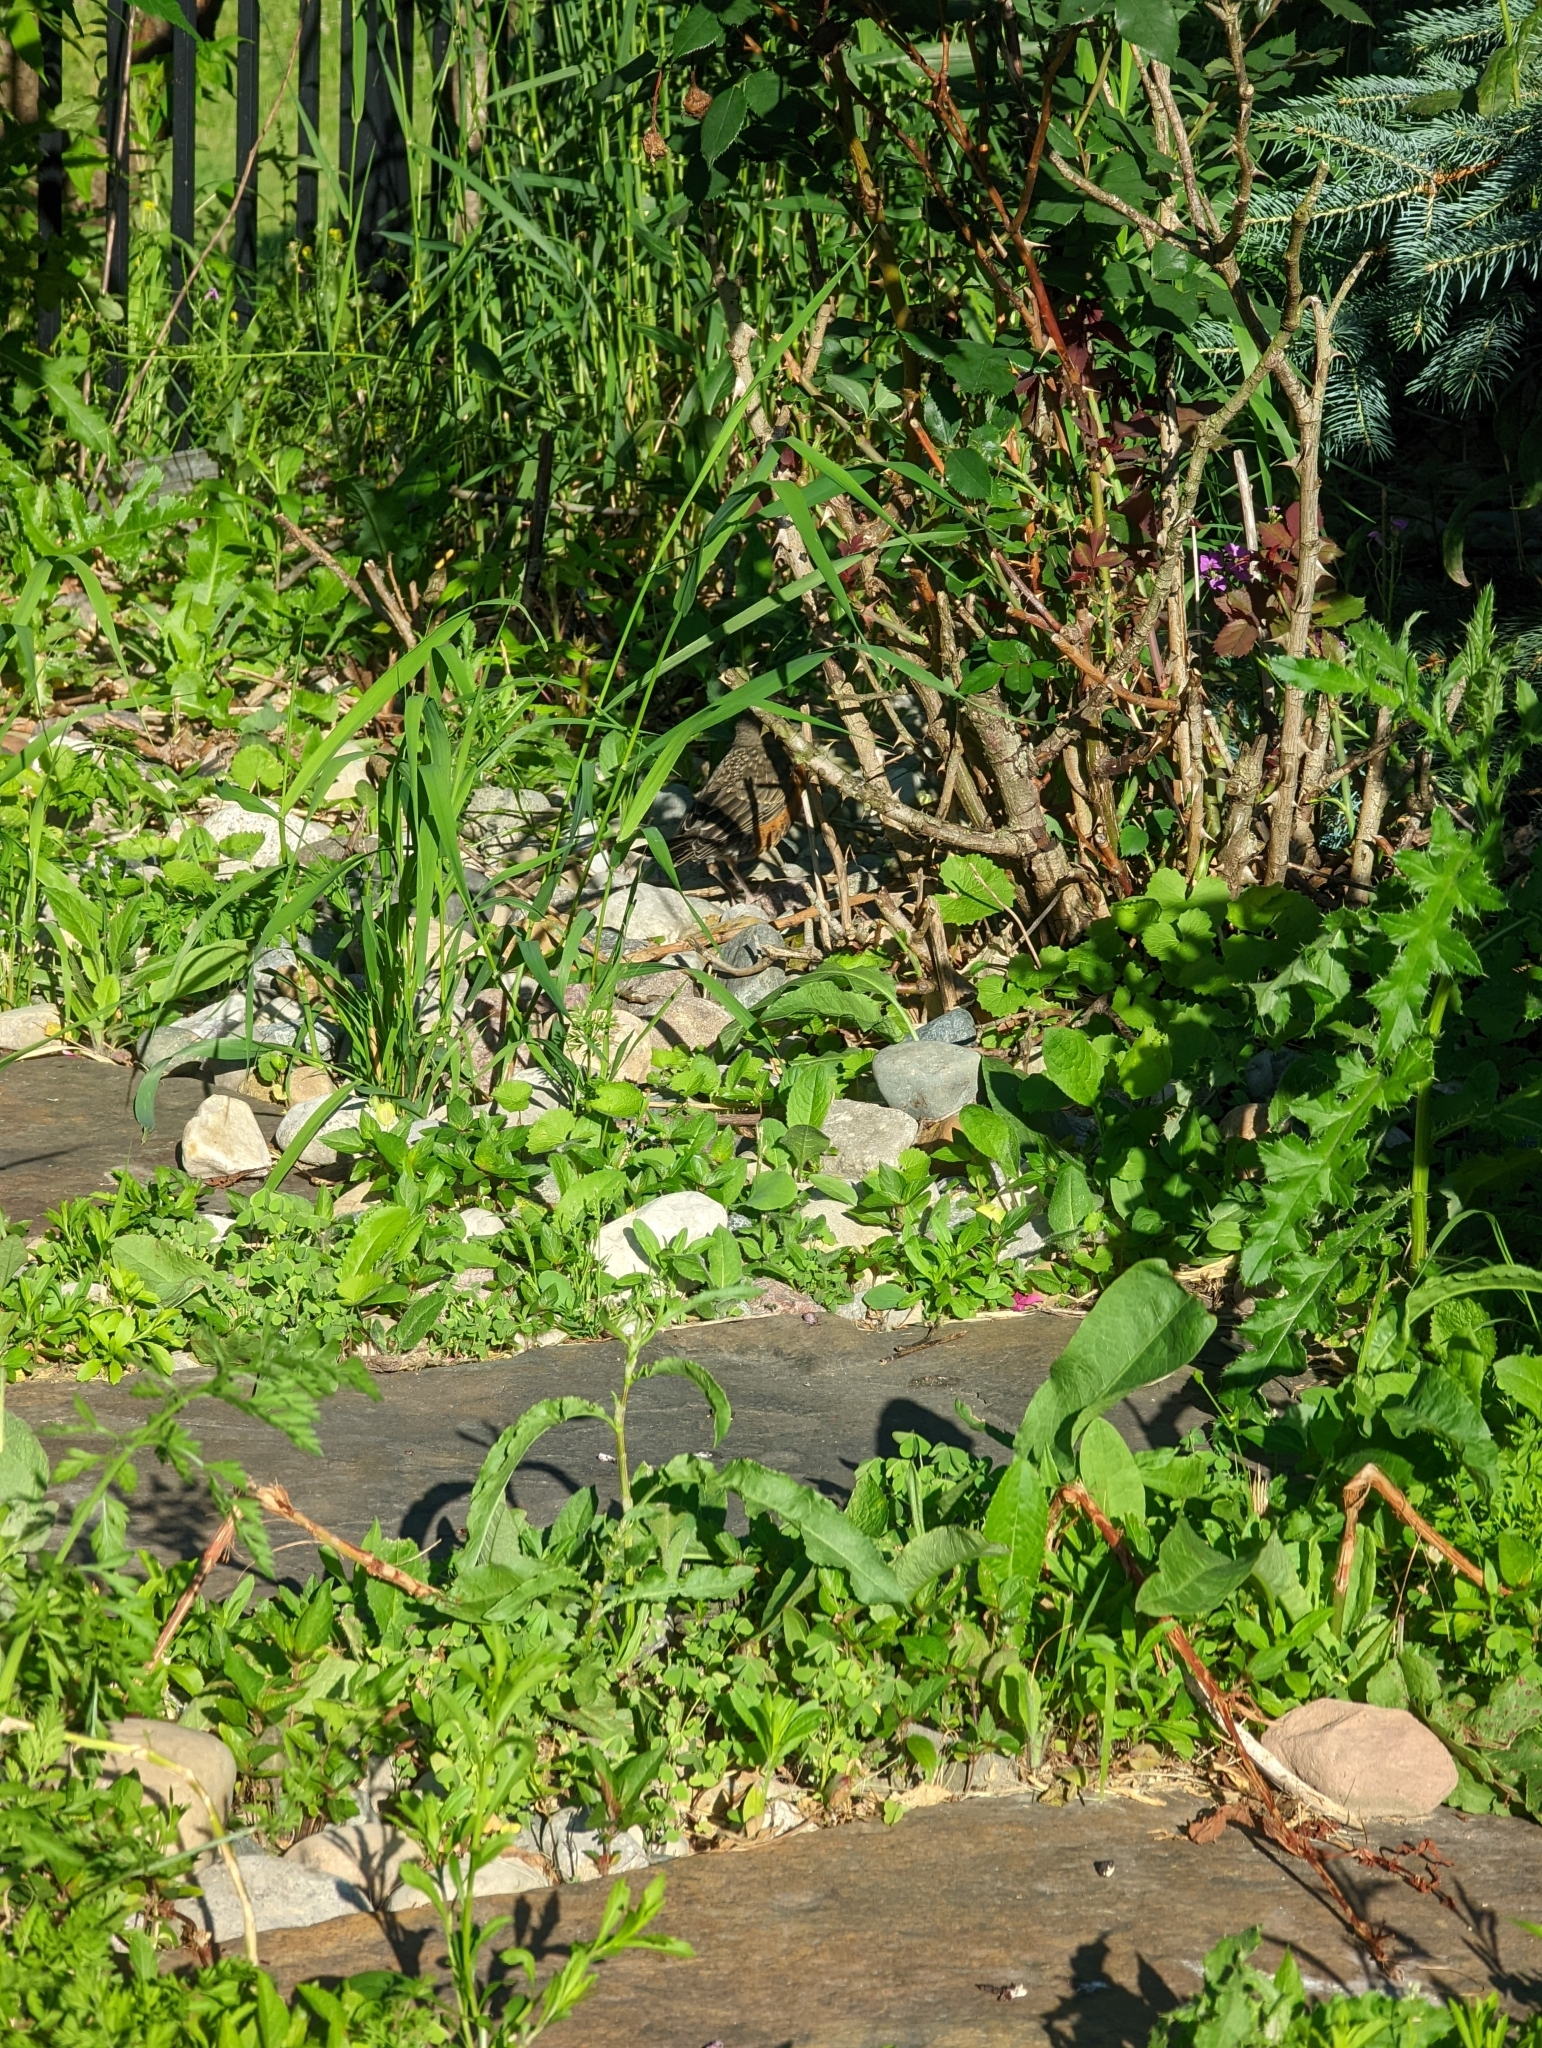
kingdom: Animalia
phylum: Chordata
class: Aves
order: Passeriformes
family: Turdidae
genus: Turdus
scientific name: Turdus migratorius
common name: American robin
